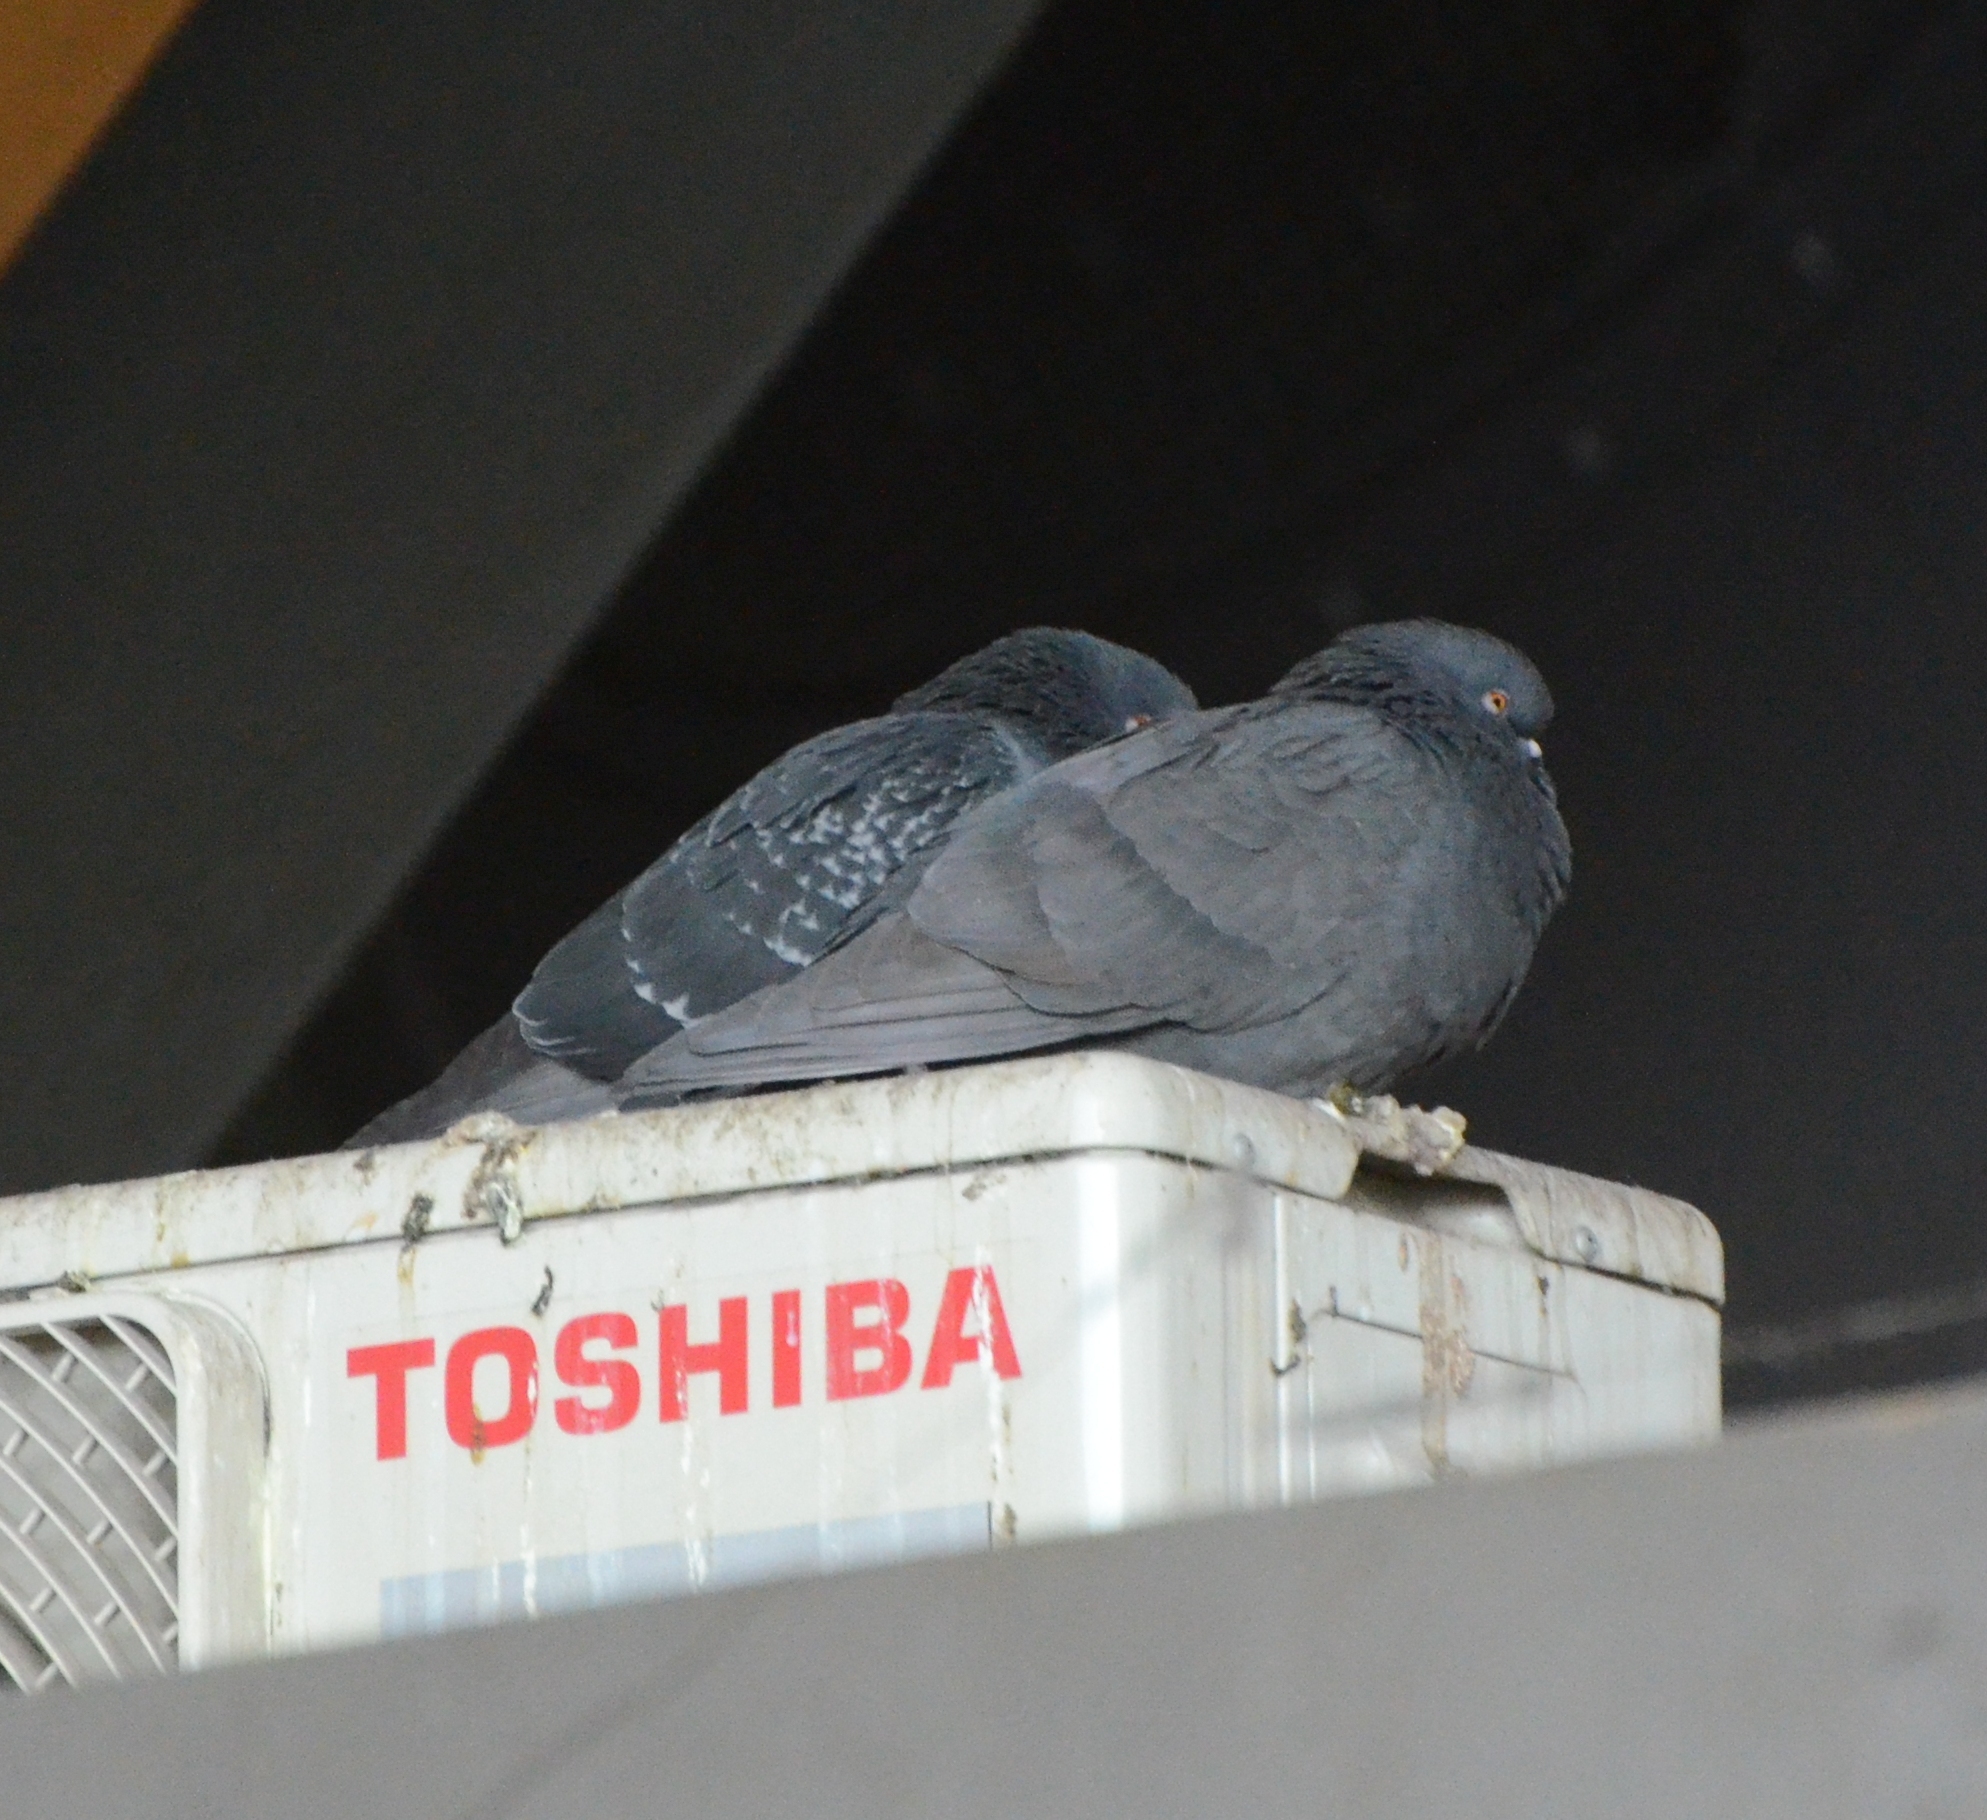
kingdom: Animalia
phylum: Chordata
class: Aves
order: Columbiformes
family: Columbidae
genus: Columba
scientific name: Columba livia
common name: Rock pigeon
